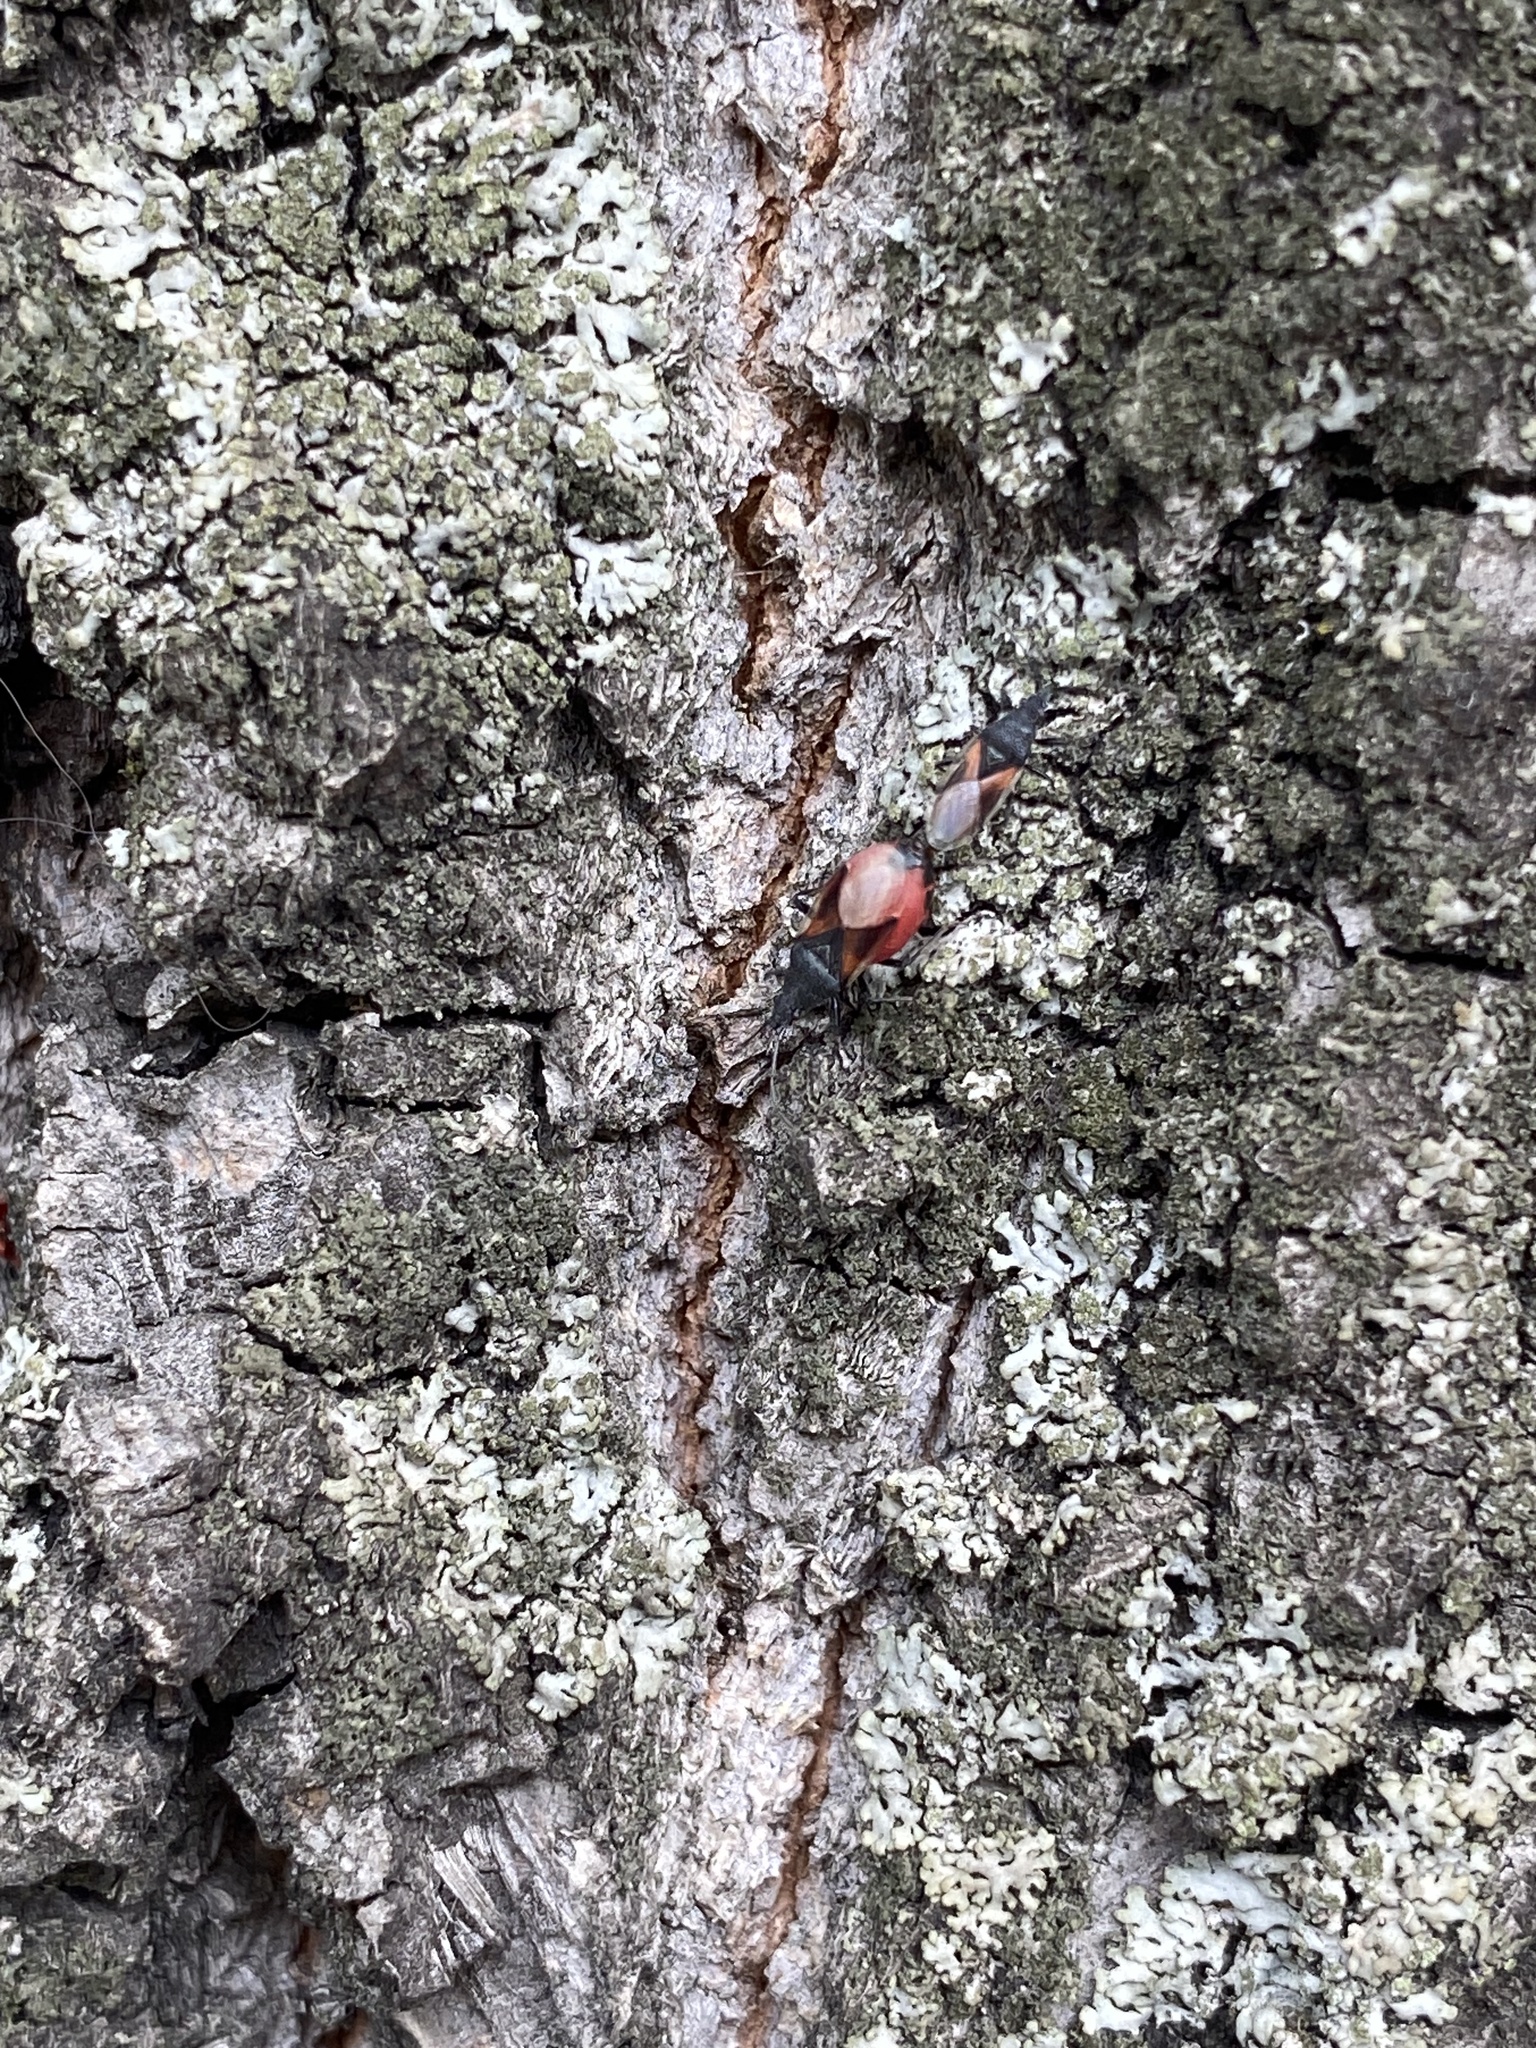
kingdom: Animalia
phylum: Arthropoda
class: Insecta
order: Hemiptera
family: Oxycarenidae
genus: Oxycarenus
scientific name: Oxycarenus lavaterae
